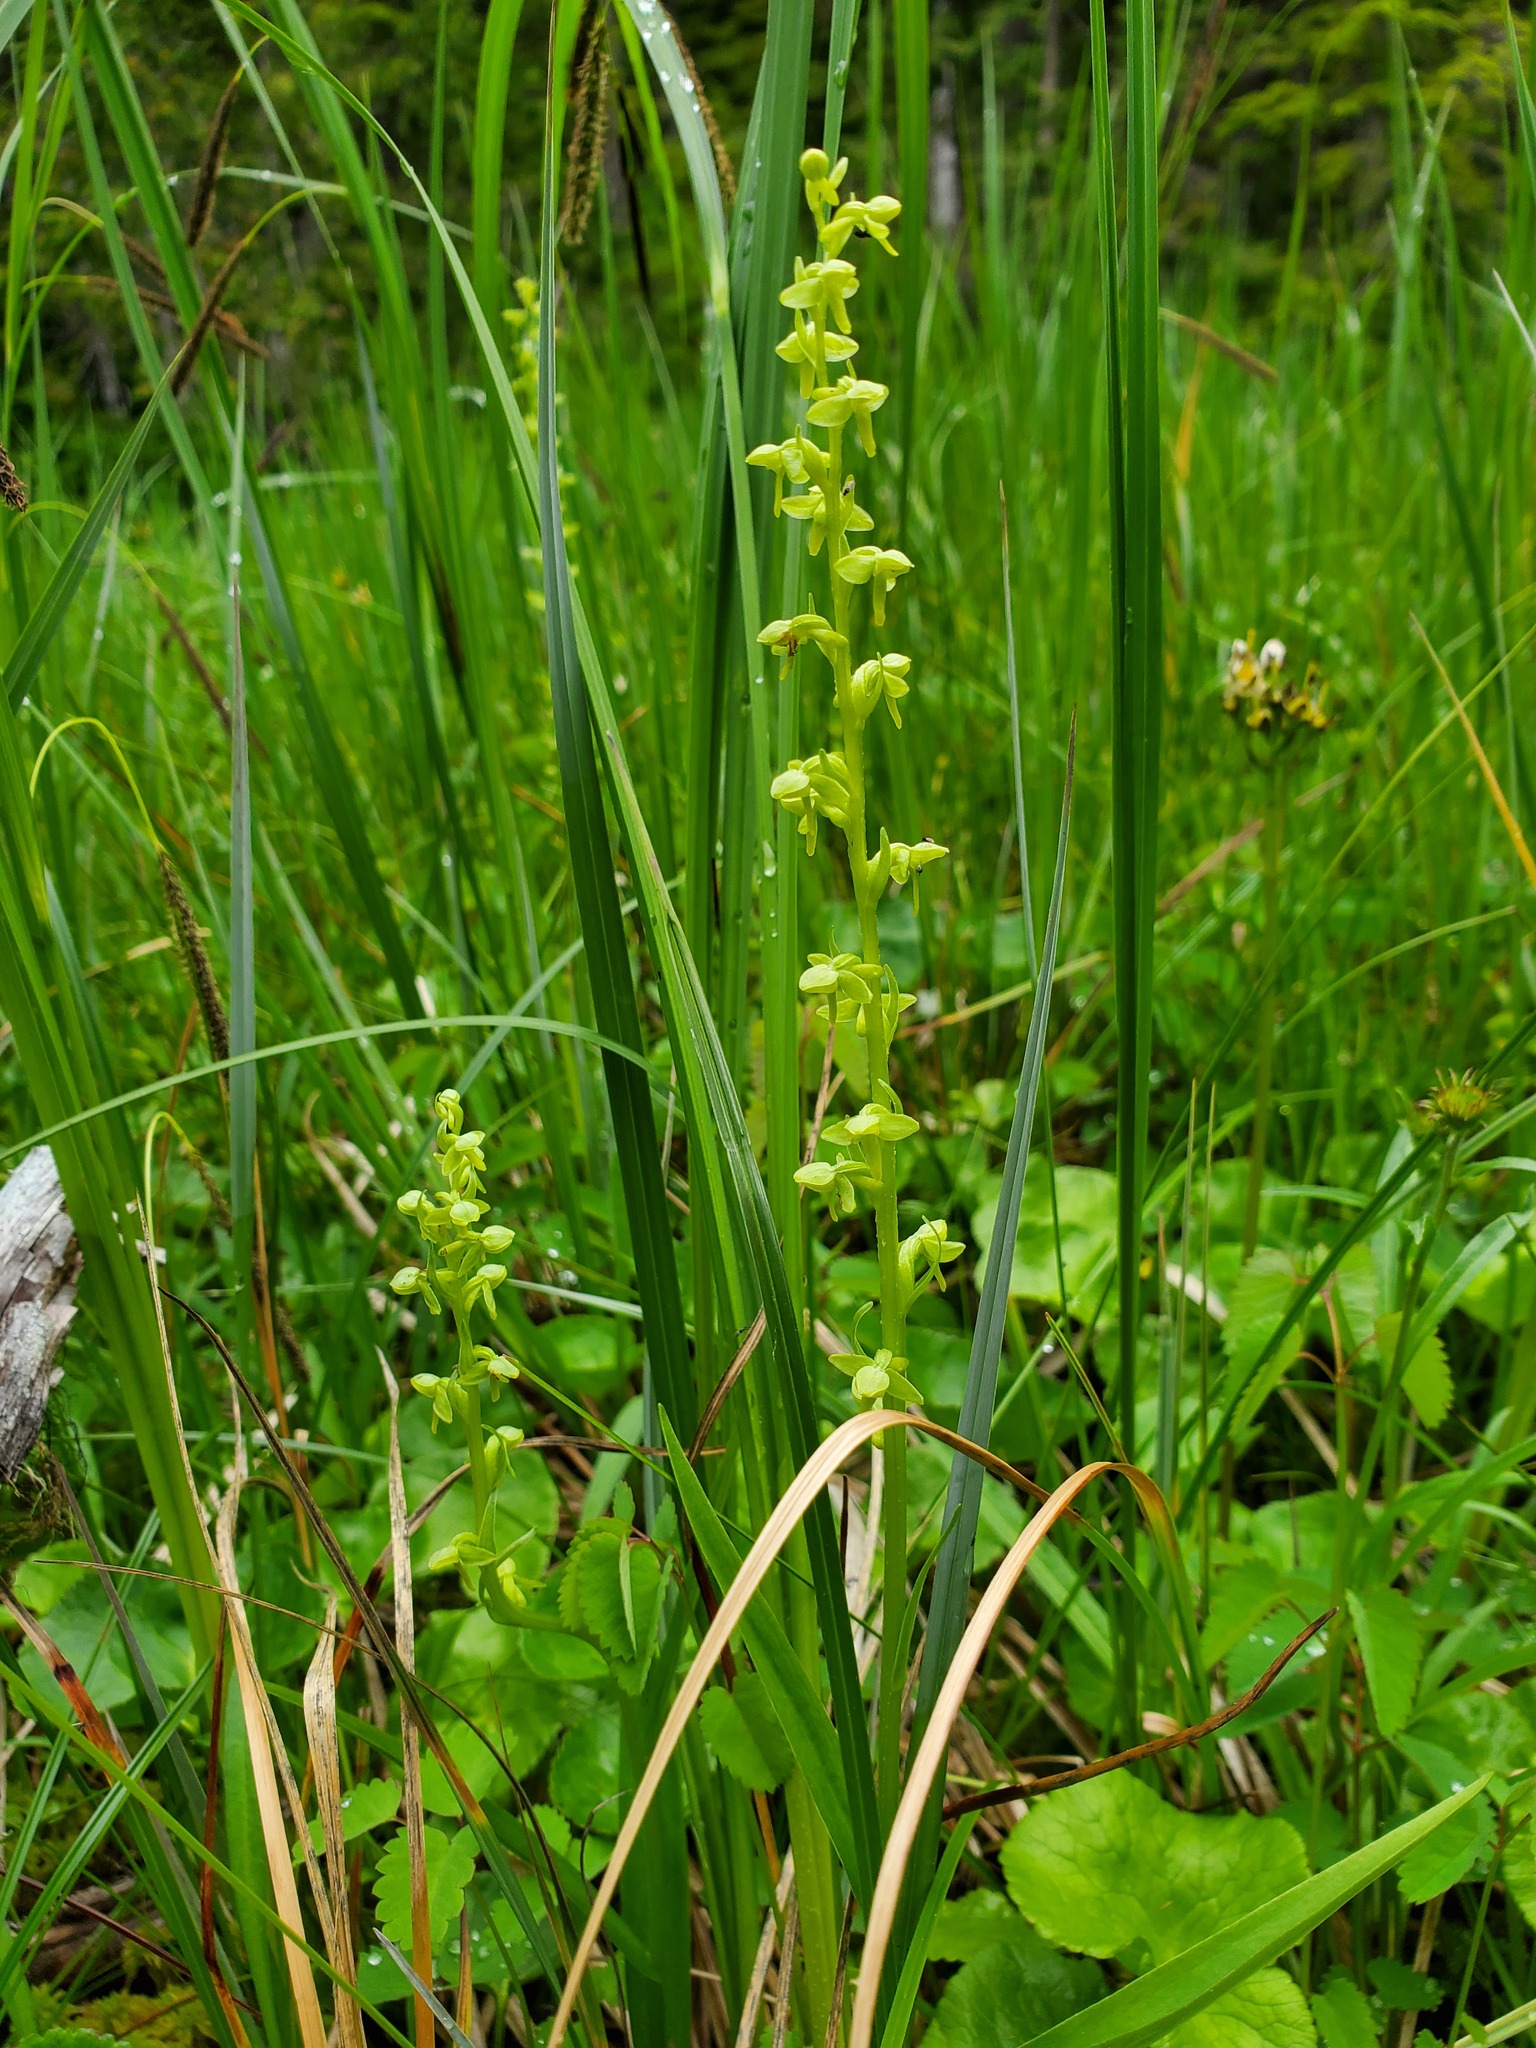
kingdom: Plantae
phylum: Tracheophyta
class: Liliopsida
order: Asparagales
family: Orchidaceae
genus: Platanthera
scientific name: Platanthera stricta
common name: Slender bog orchid
